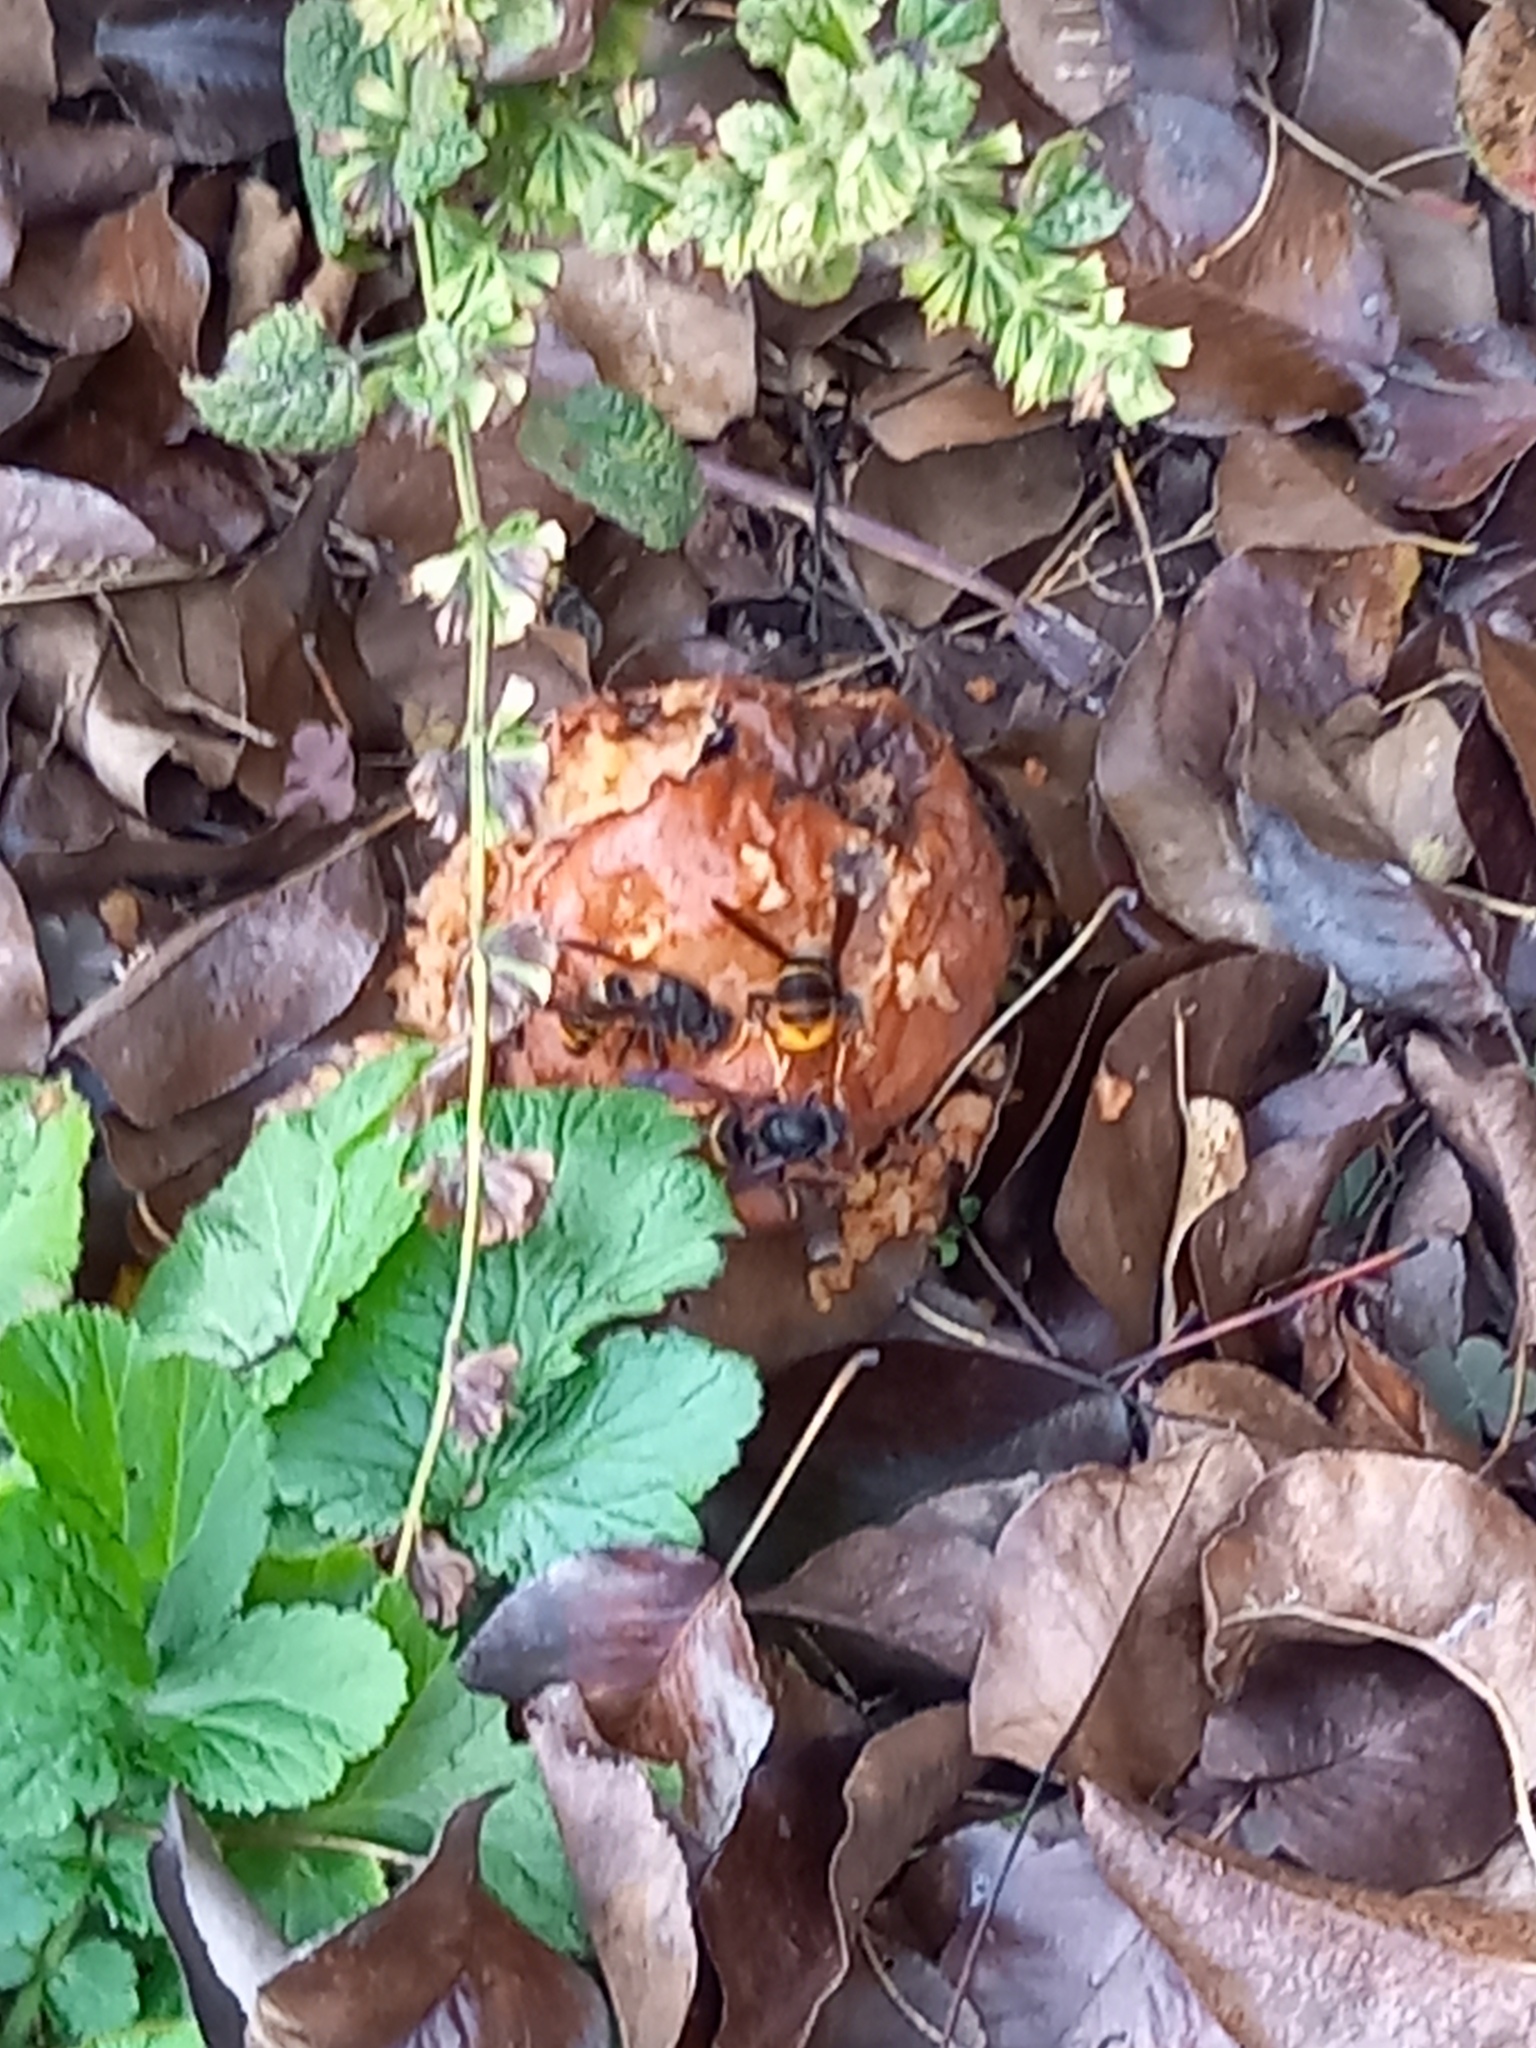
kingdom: Animalia
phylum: Arthropoda
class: Insecta
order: Hymenoptera
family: Vespidae
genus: Vespa
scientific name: Vespa velutina
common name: Asian hornet
